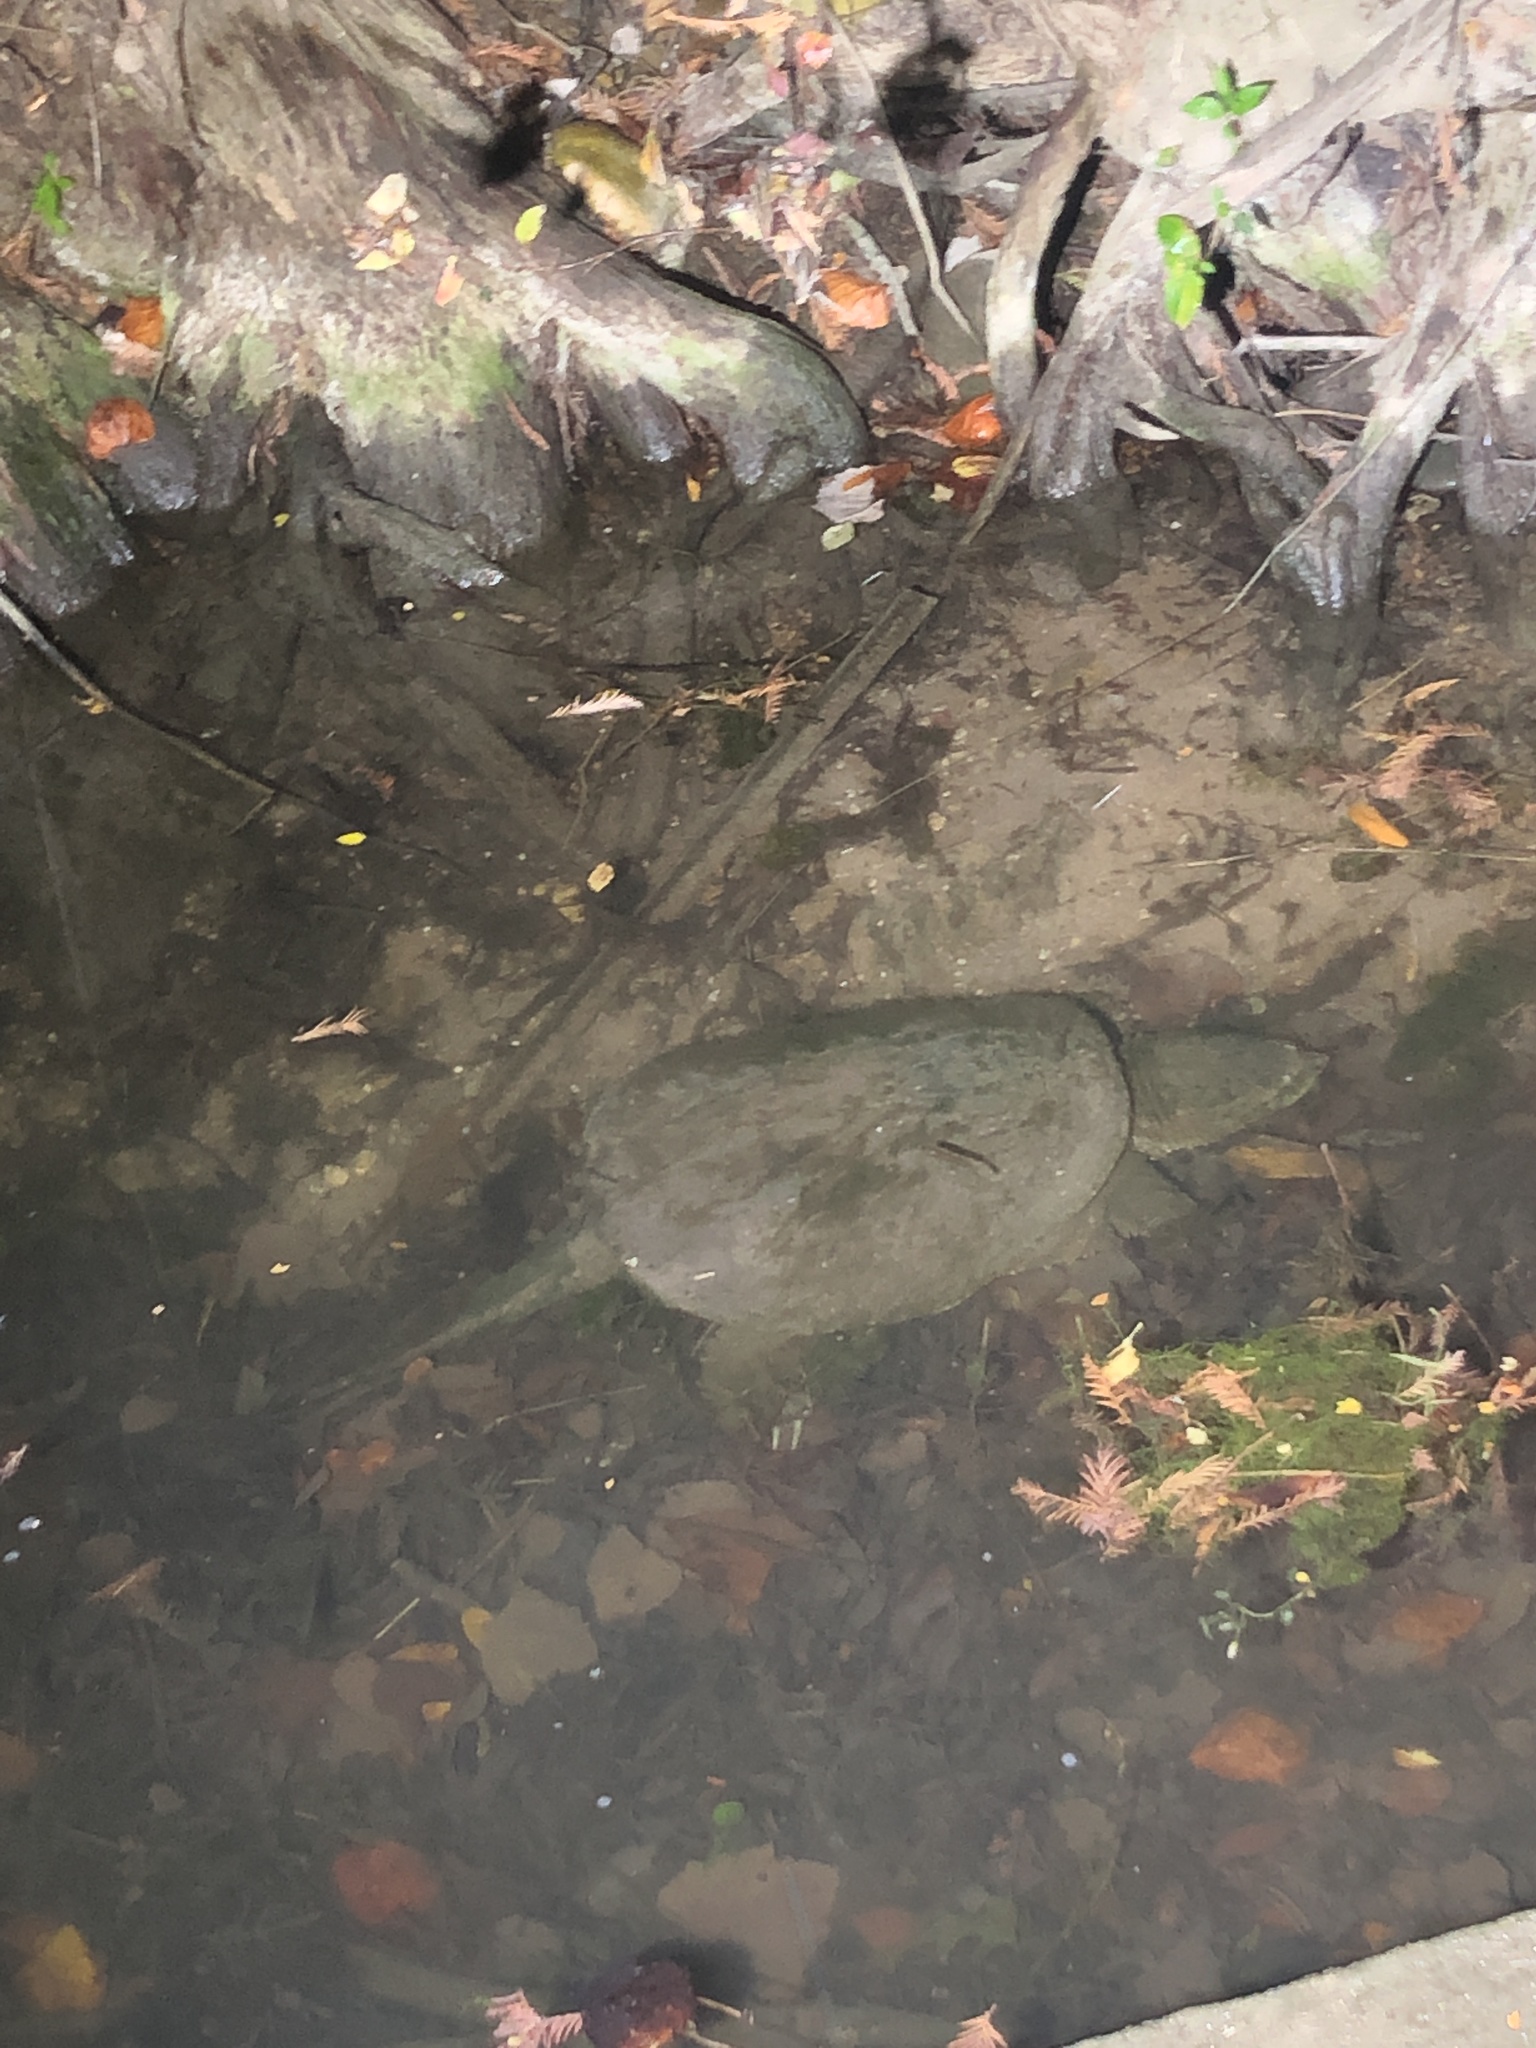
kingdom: Animalia
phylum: Chordata
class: Testudines
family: Chelydridae
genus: Chelydra
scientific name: Chelydra serpentina
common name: Common snapping turtle
